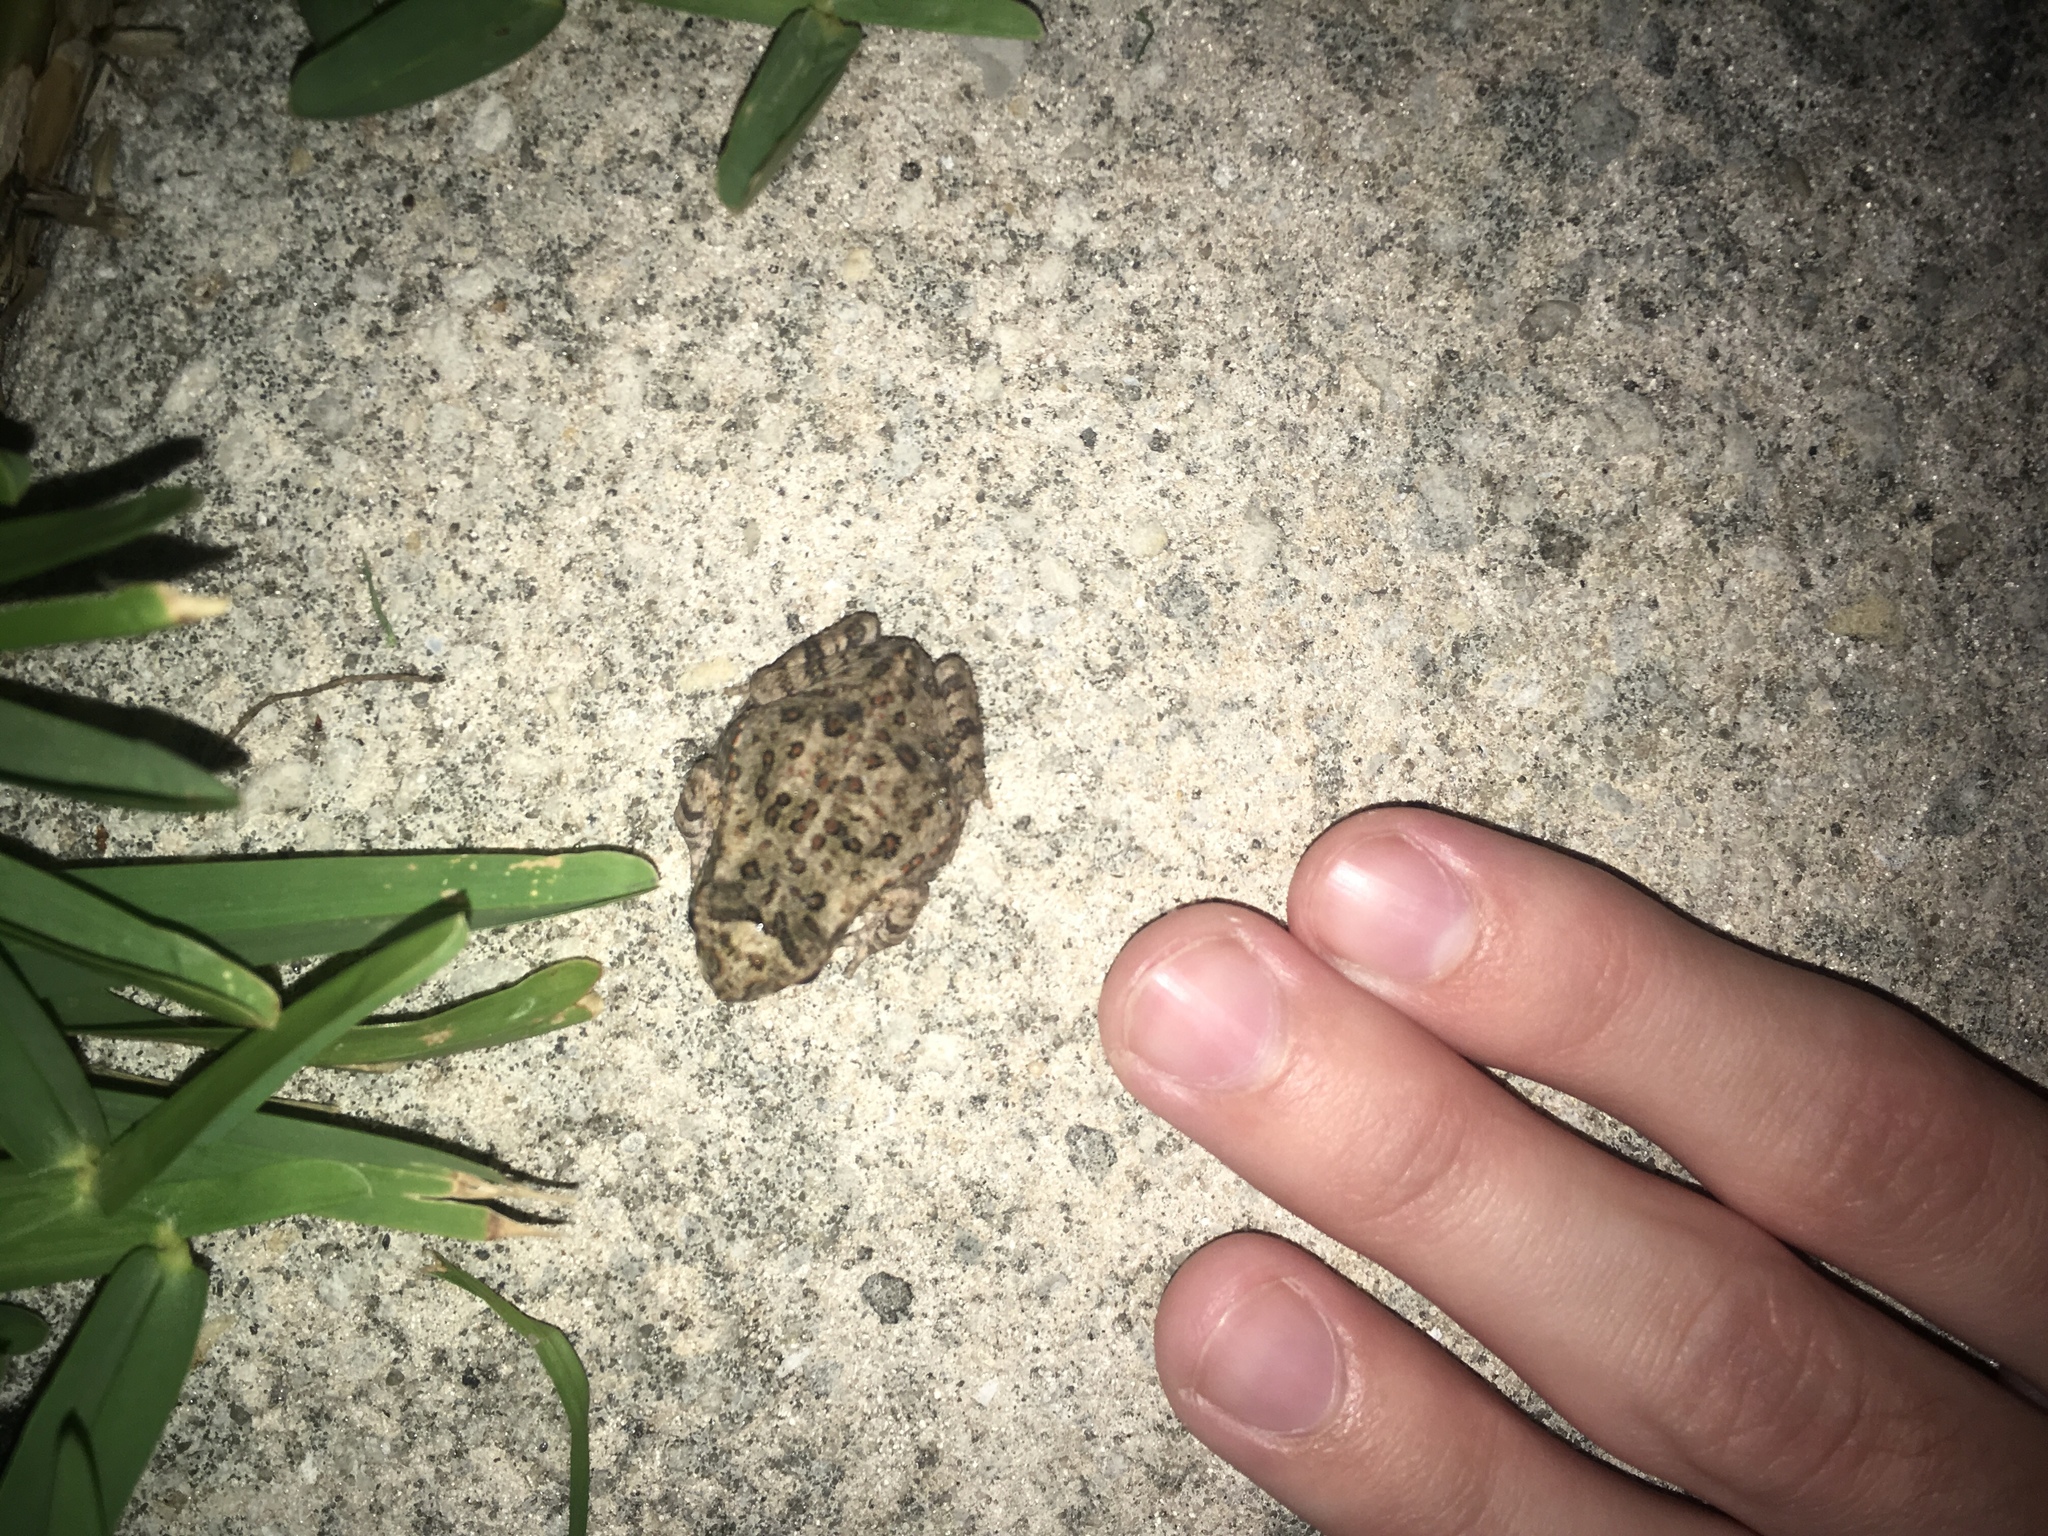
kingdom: Animalia
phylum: Chordata
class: Amphibia
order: Anura
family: Bufonidae
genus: Rhinella
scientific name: Rhinella marina
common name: Cane toad
